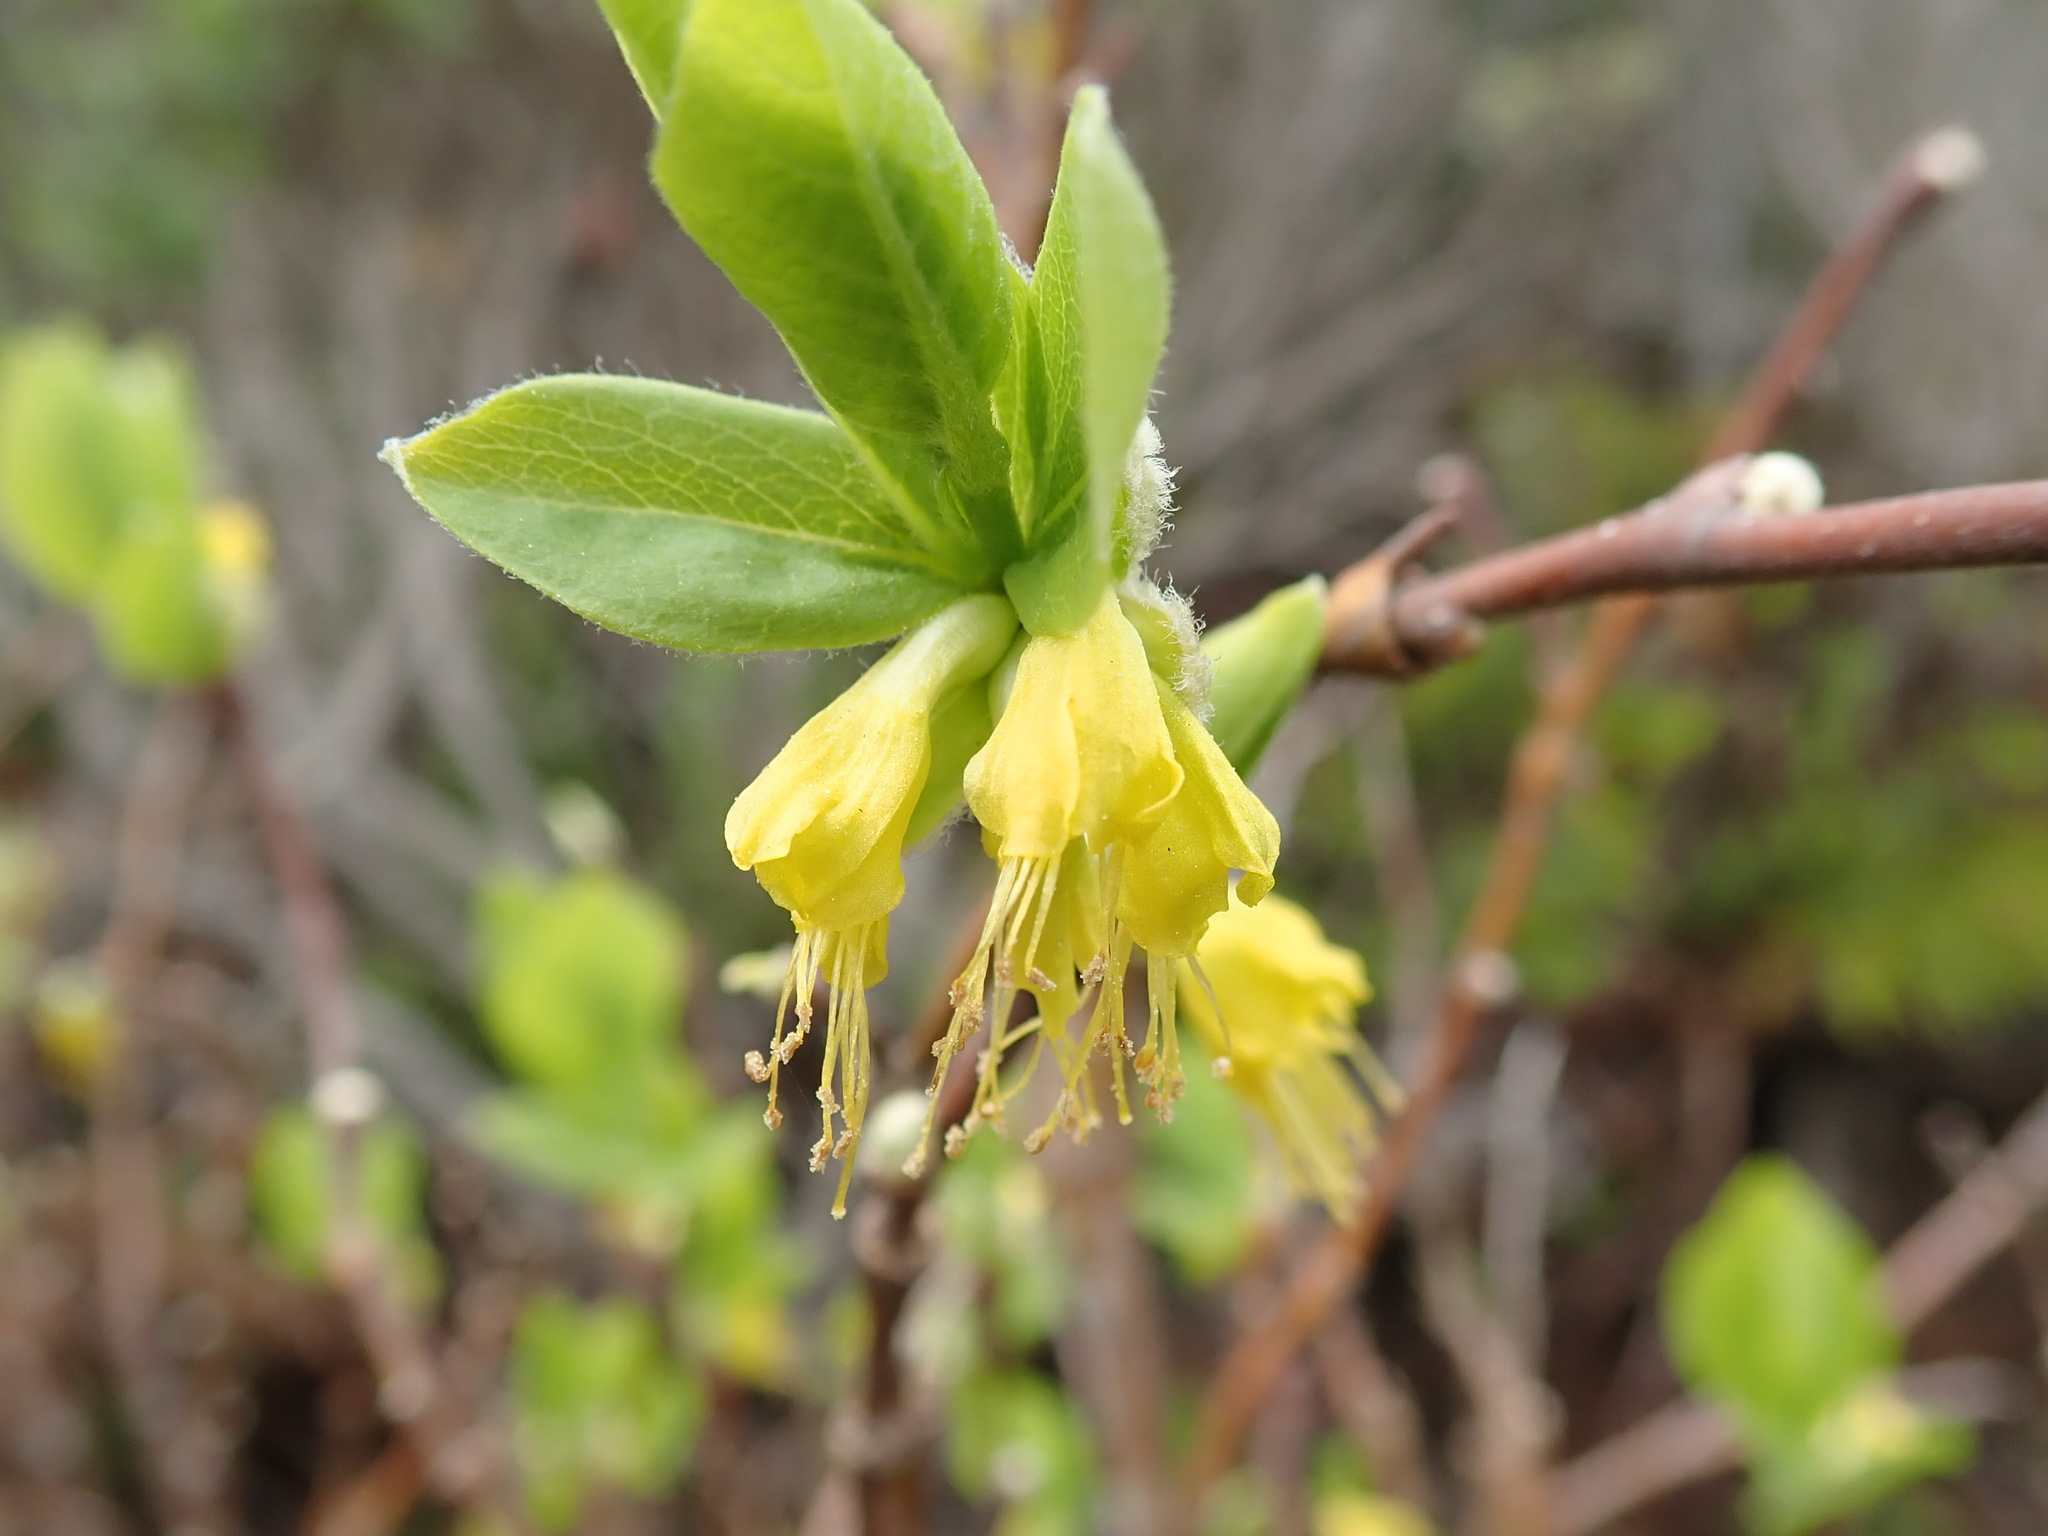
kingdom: Plantae
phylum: Tracheophyta
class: Magnoliopsida
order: Malvales
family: Thymelaeaceae
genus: Dirca
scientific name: Dirca occidentalis
